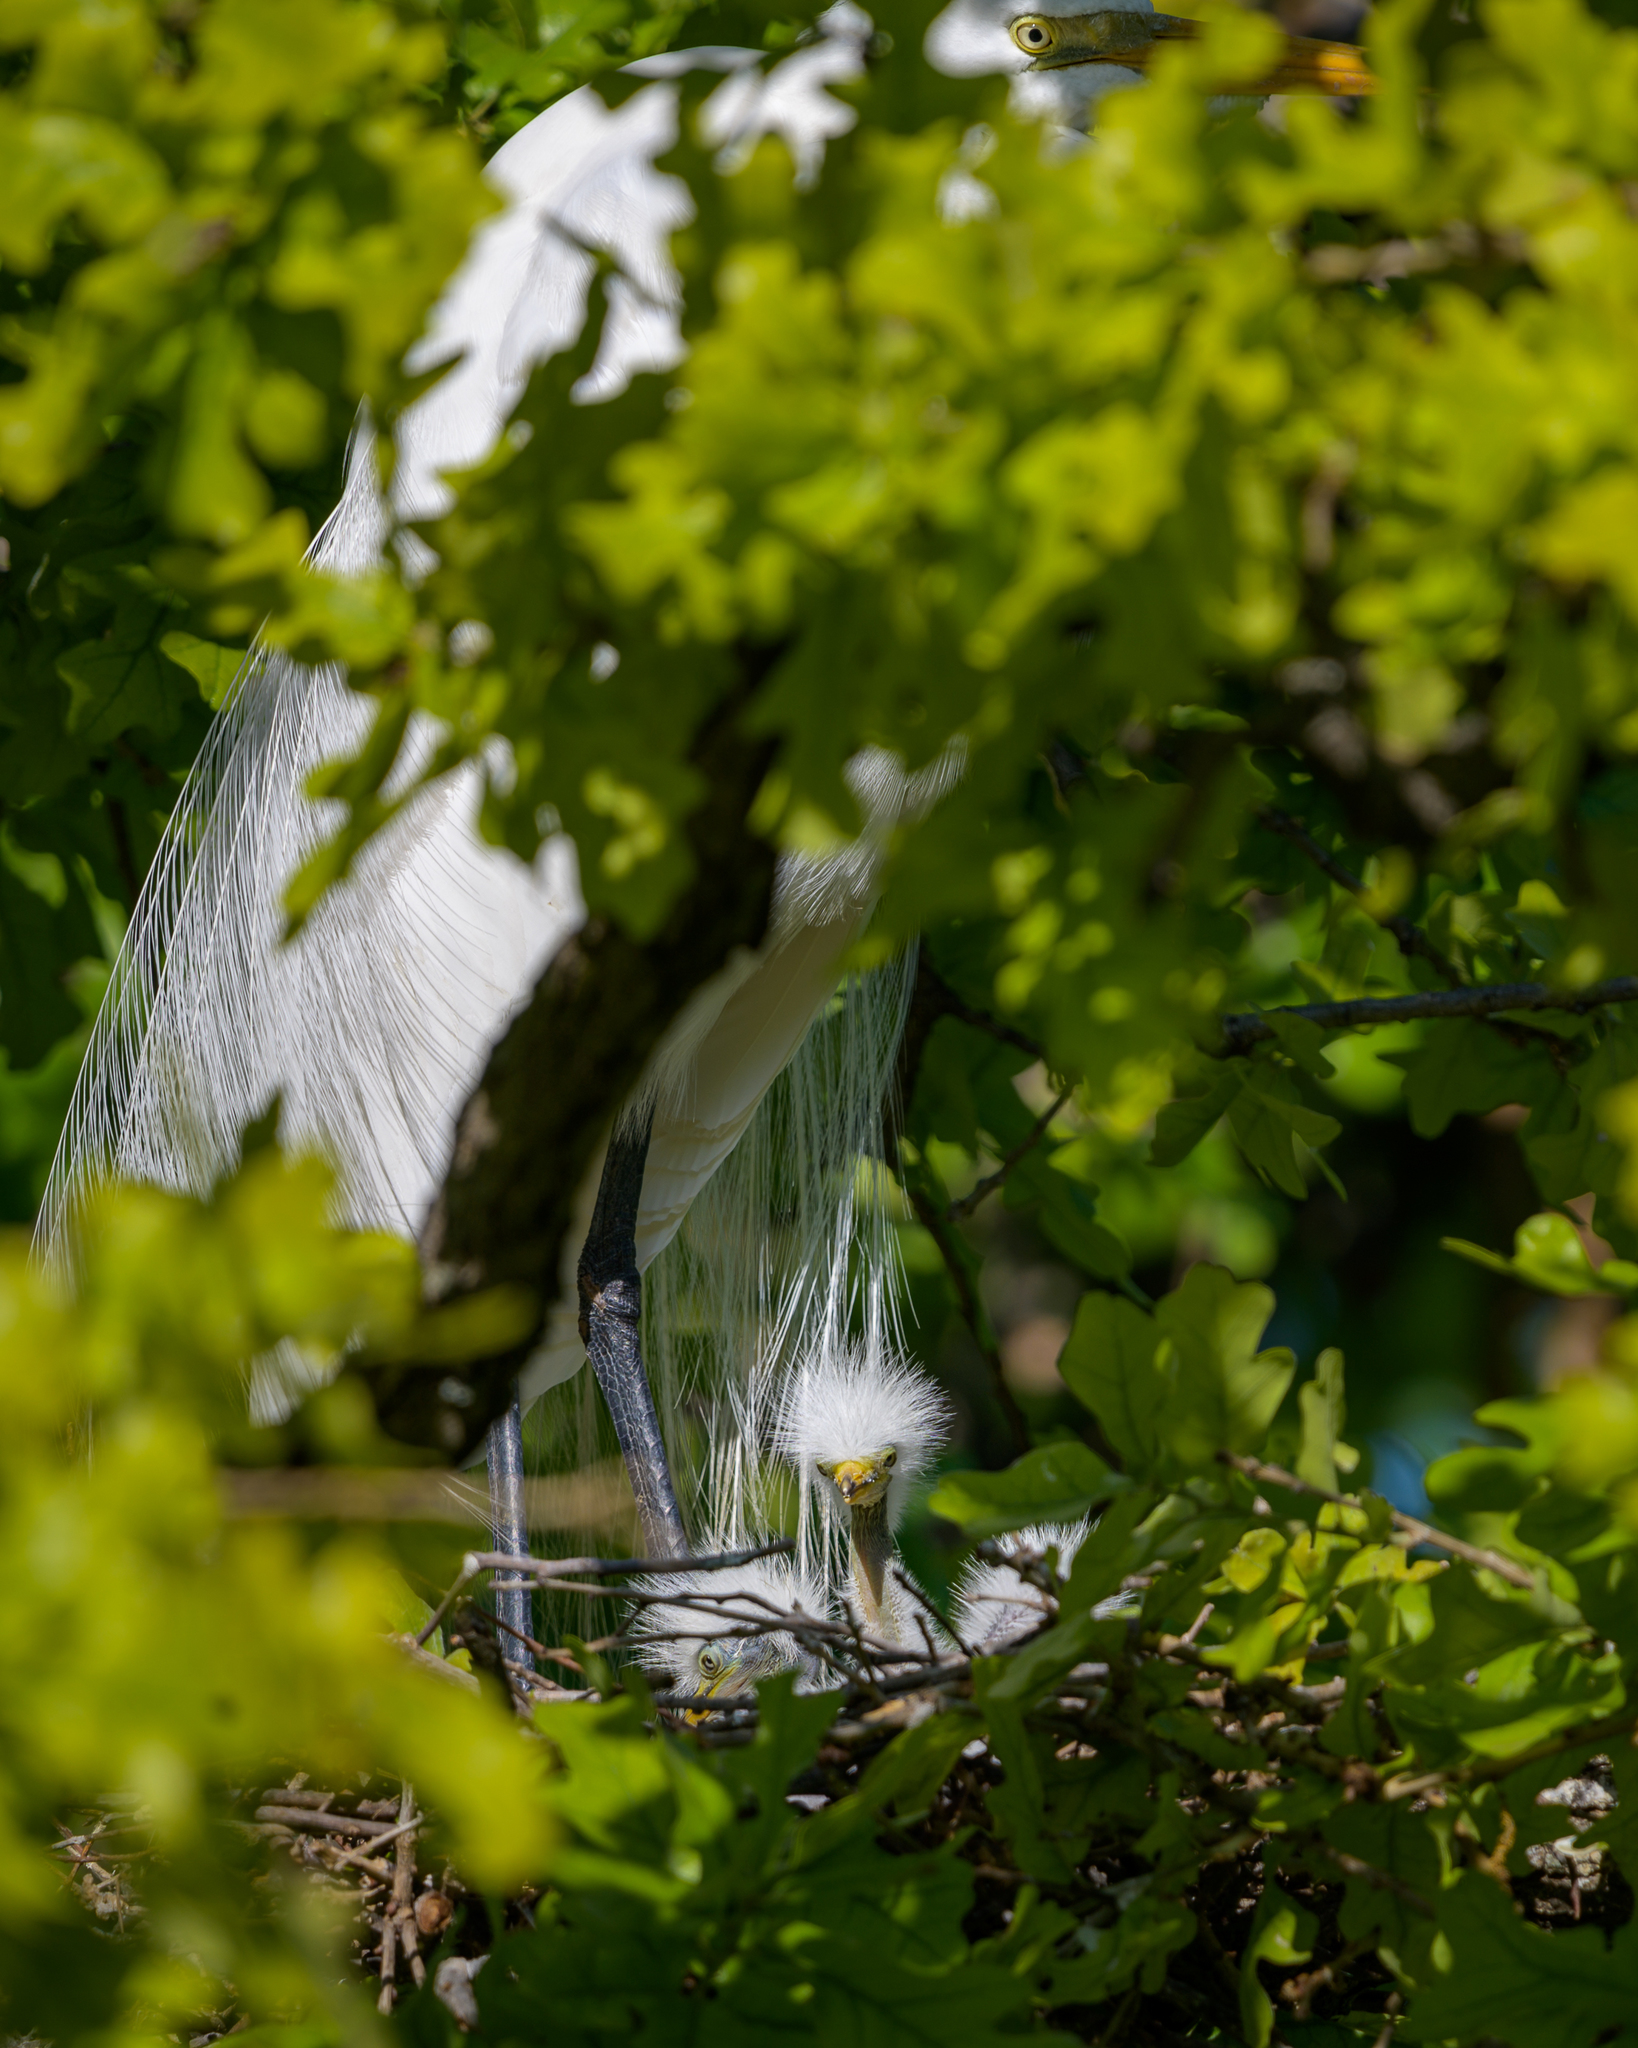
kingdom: Animalia
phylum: Chordata
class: Aves
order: Pelecaniformes
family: Ardeidae
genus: Ardea
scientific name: Ardea alba
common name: Great egret
